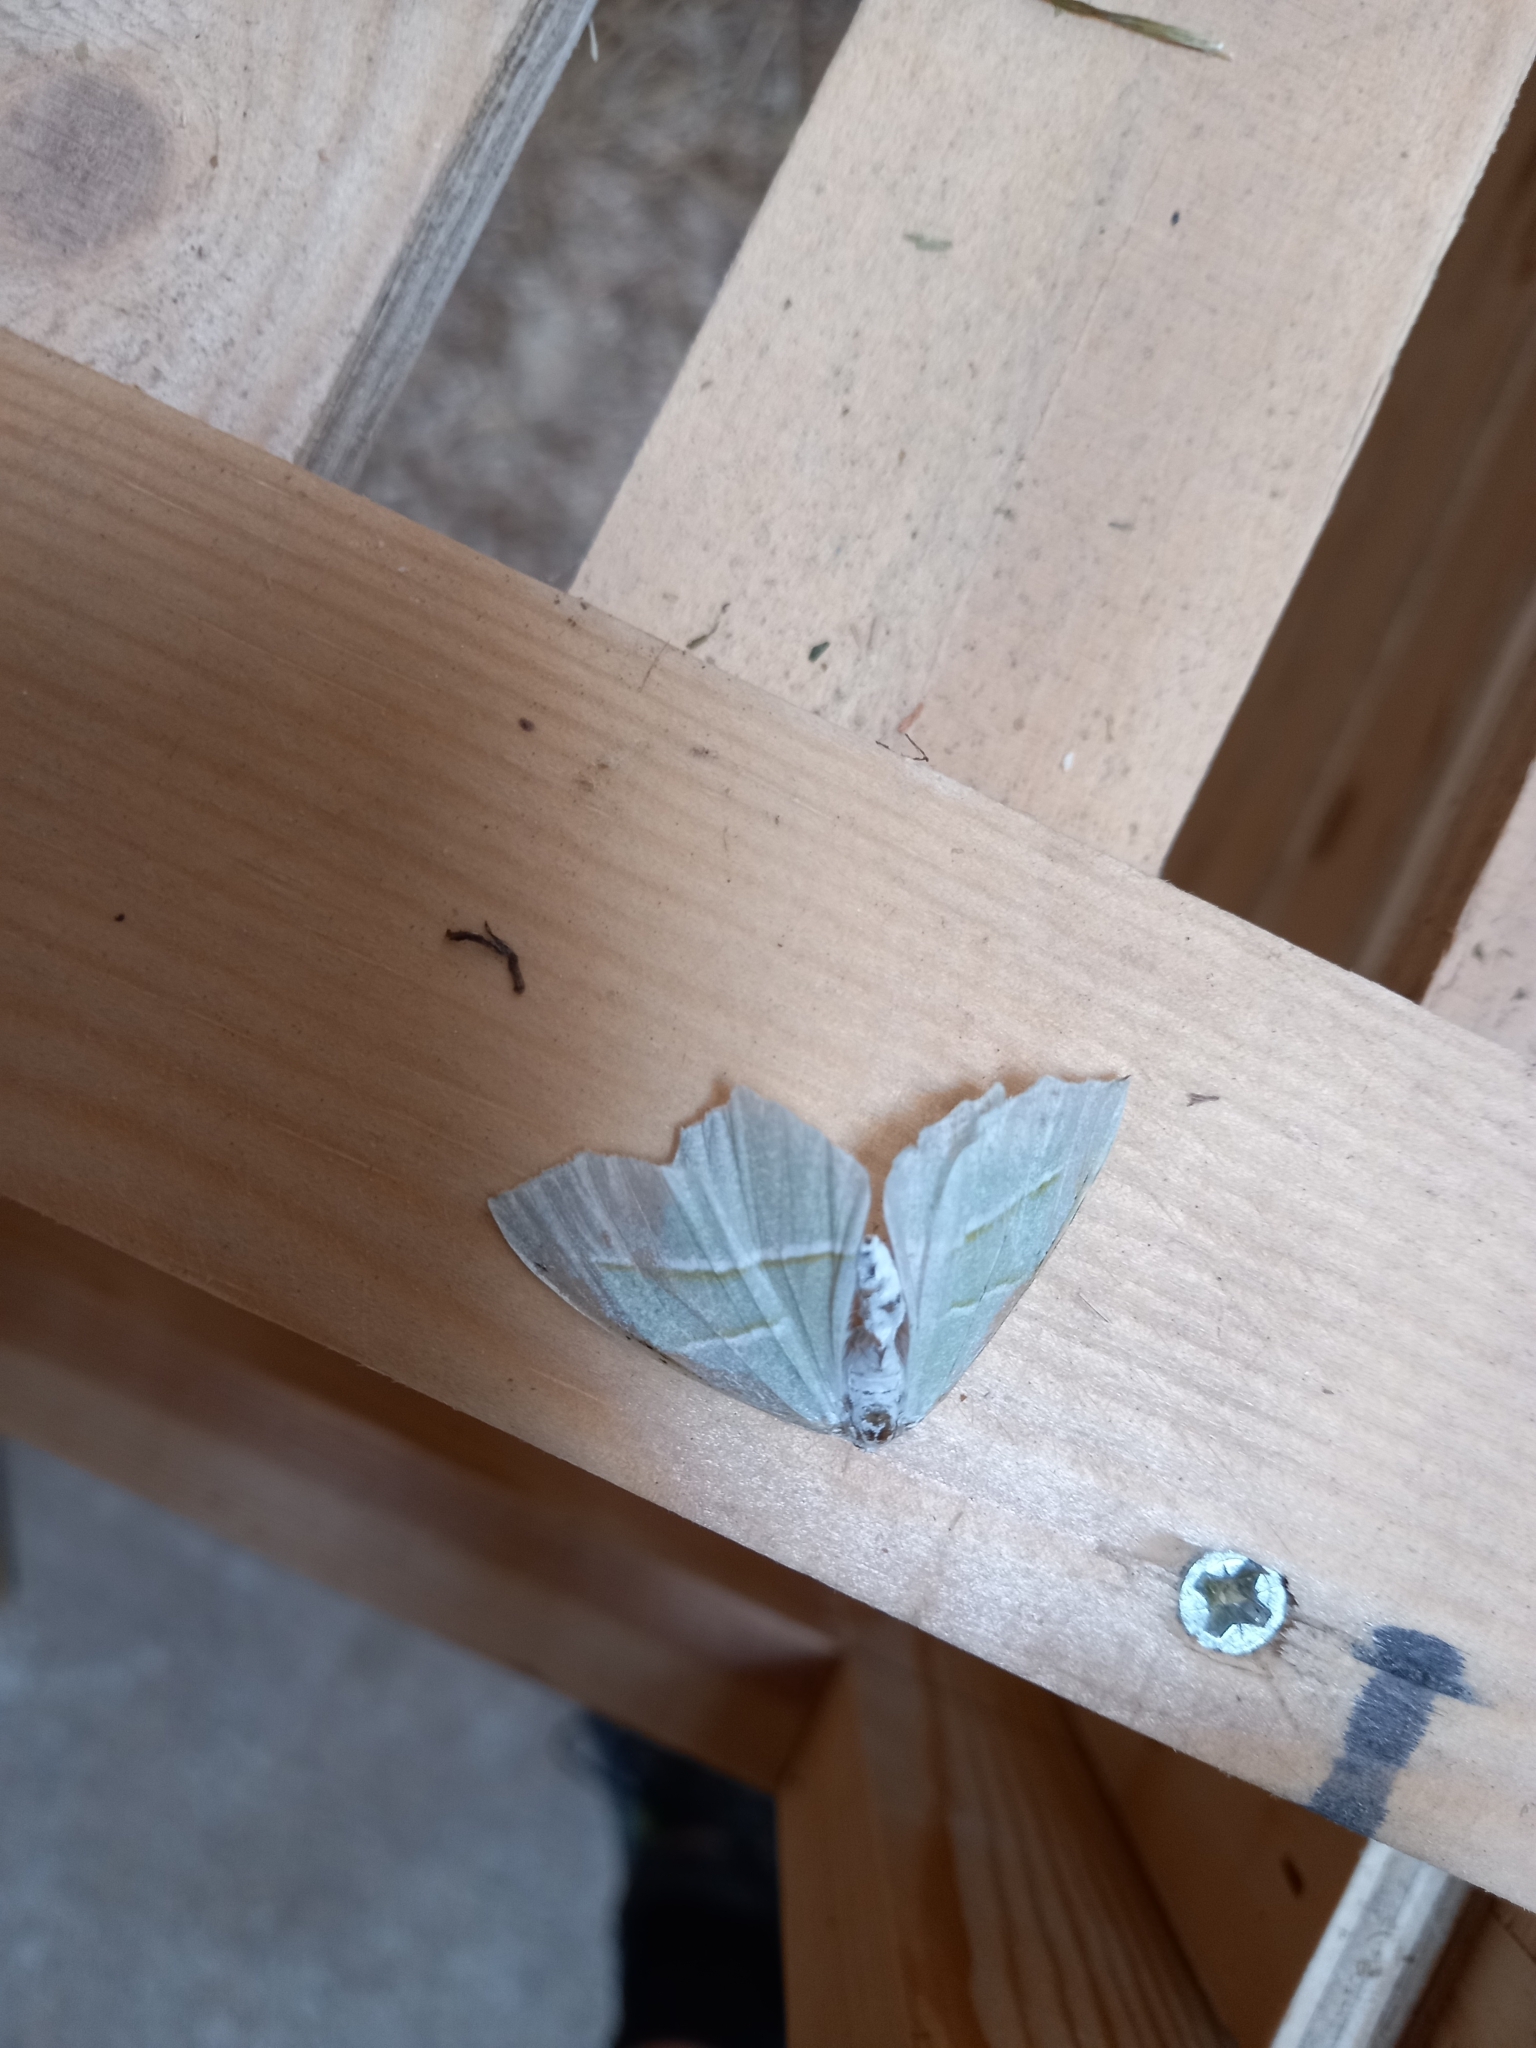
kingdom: Animalia
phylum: Arthropoda
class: Insecta
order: Lepidoptera
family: Geometridae
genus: Campaea
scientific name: Campaea margaritaria
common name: Light emerald
